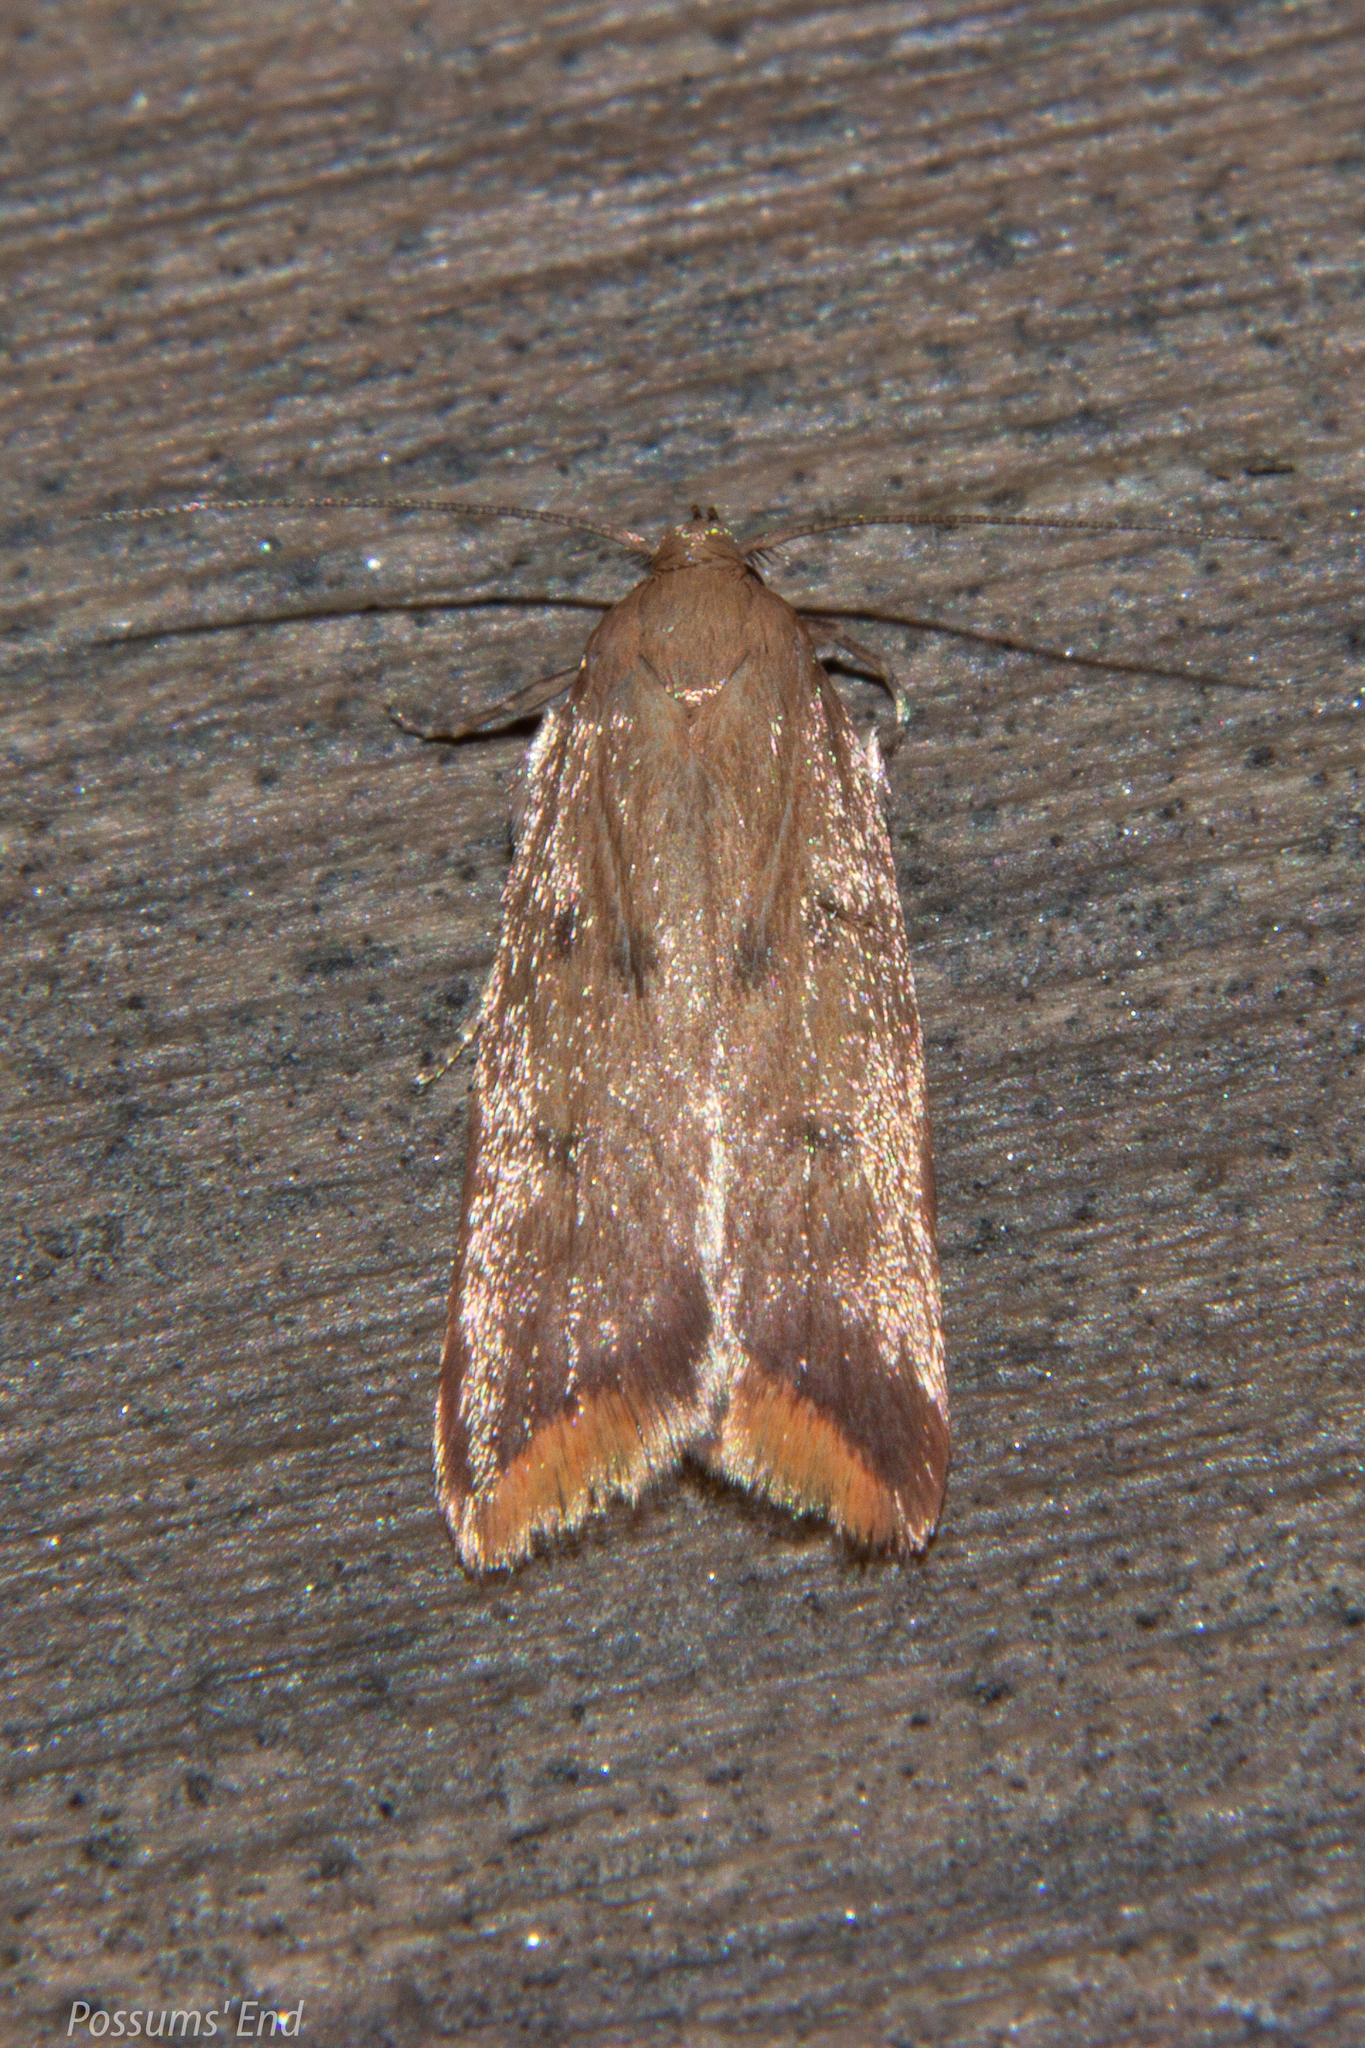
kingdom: Animalia
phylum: Arthropoda
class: Insecta
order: Lepidoptera
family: Oecophoridae
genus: Tachystola
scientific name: Tachystola acroxantha
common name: Ruddy streak
